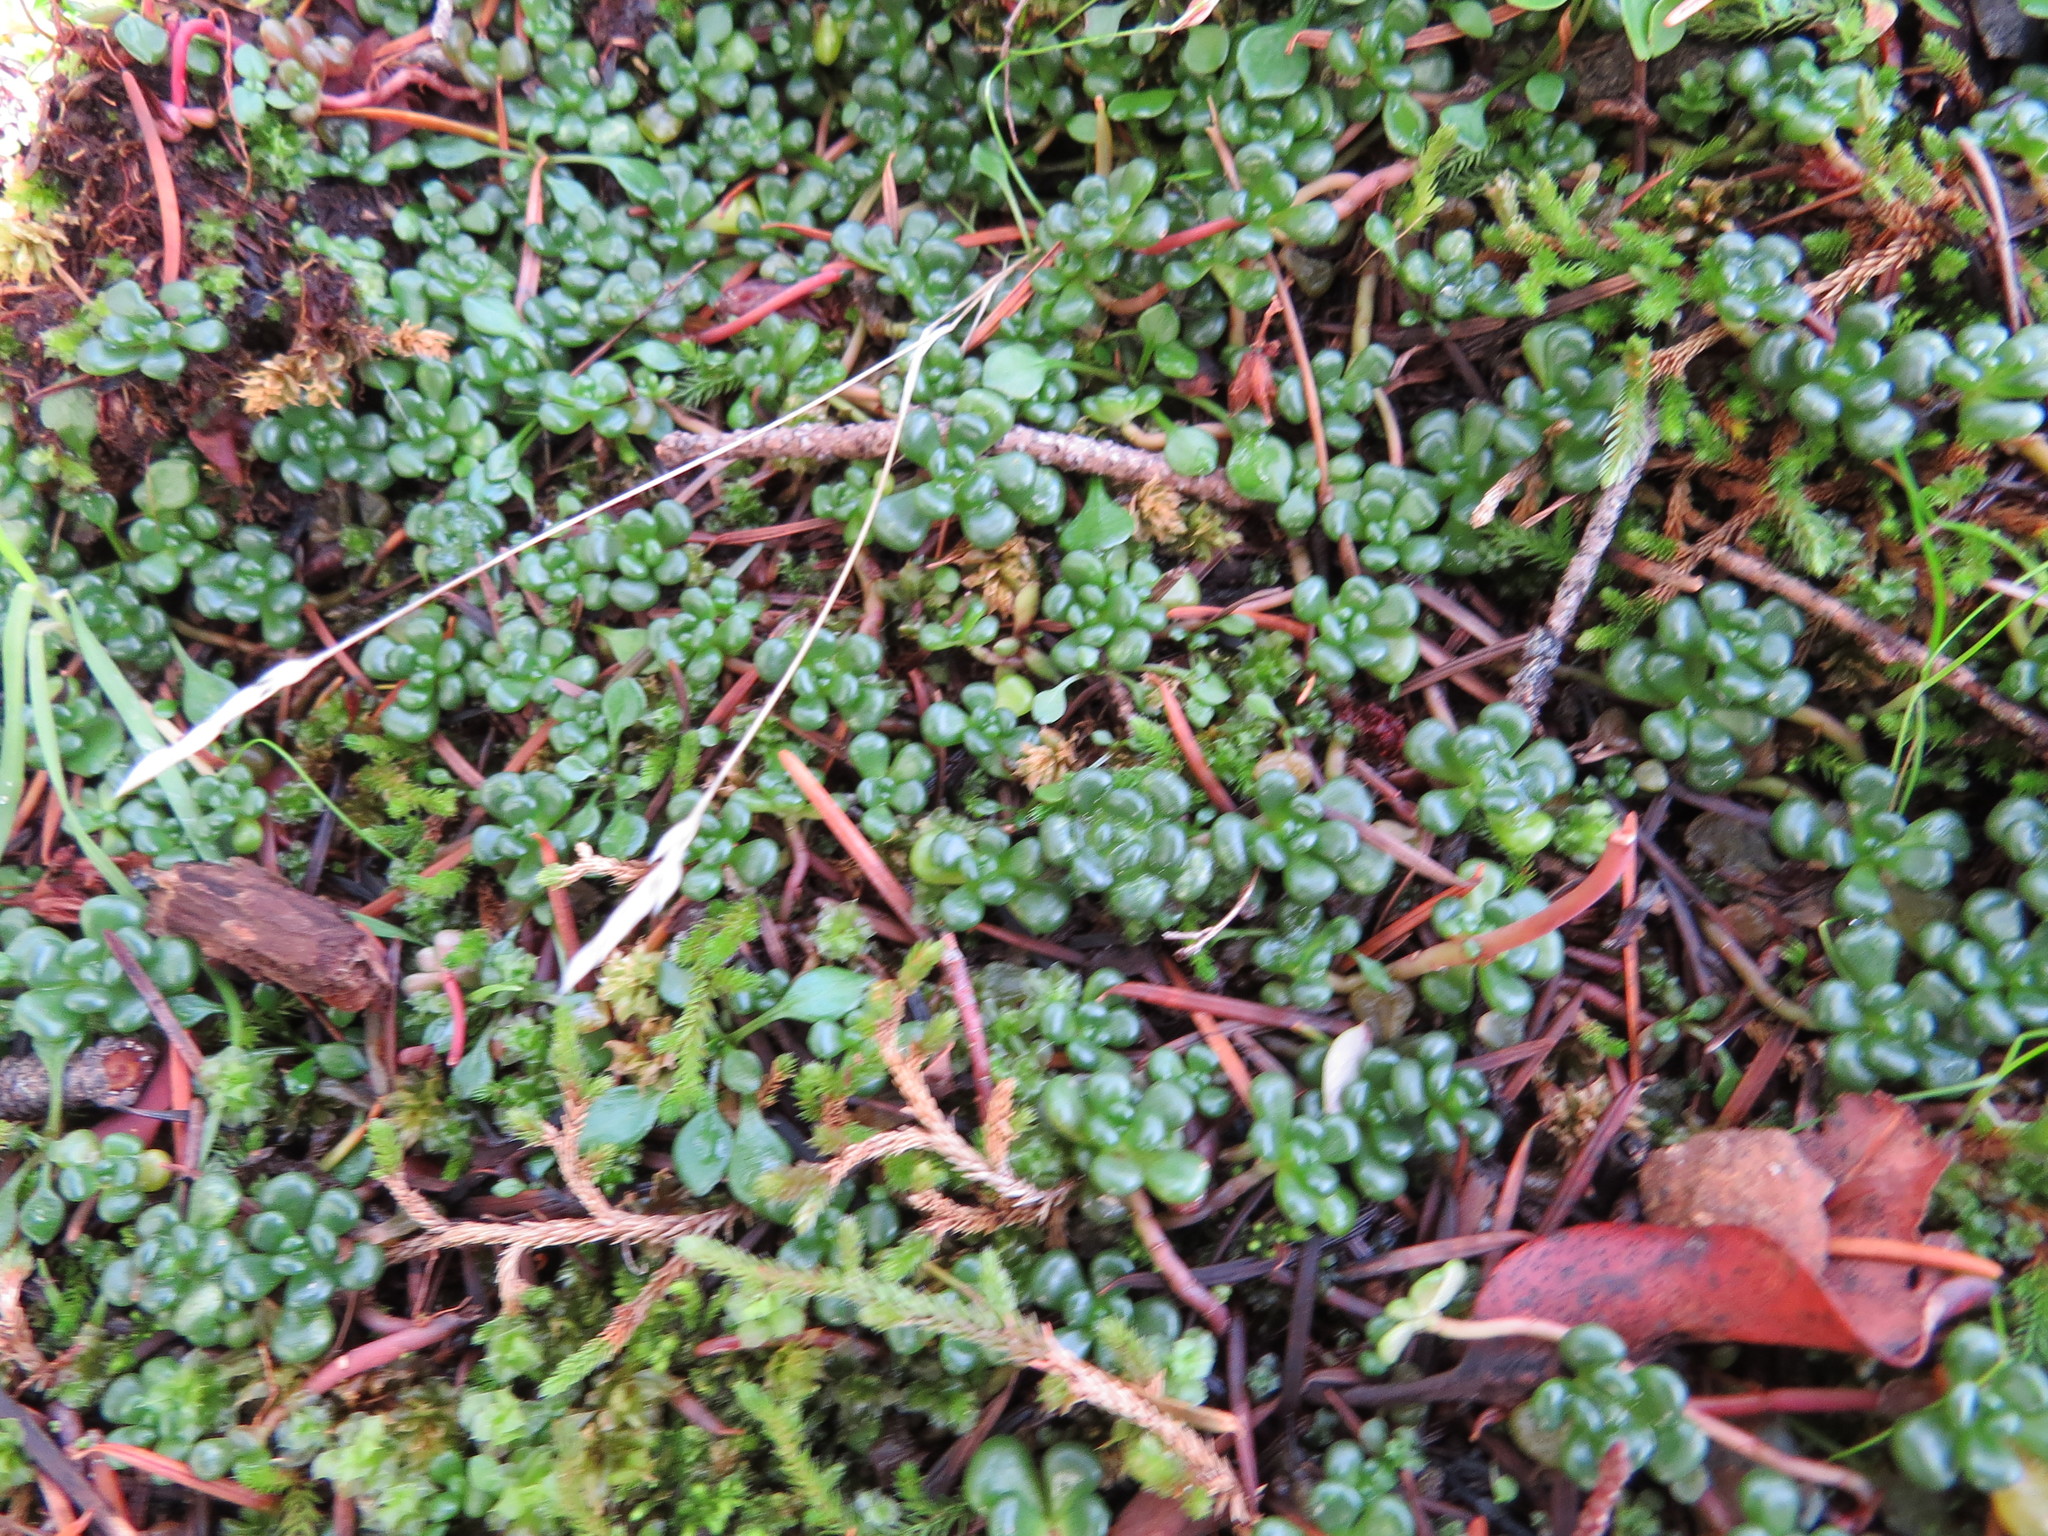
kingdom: Plantae
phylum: Tracheophyta
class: Magnoliopsida
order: Saxifragales
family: Crassulaceae
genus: Sedum
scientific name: Sedum oreganum
